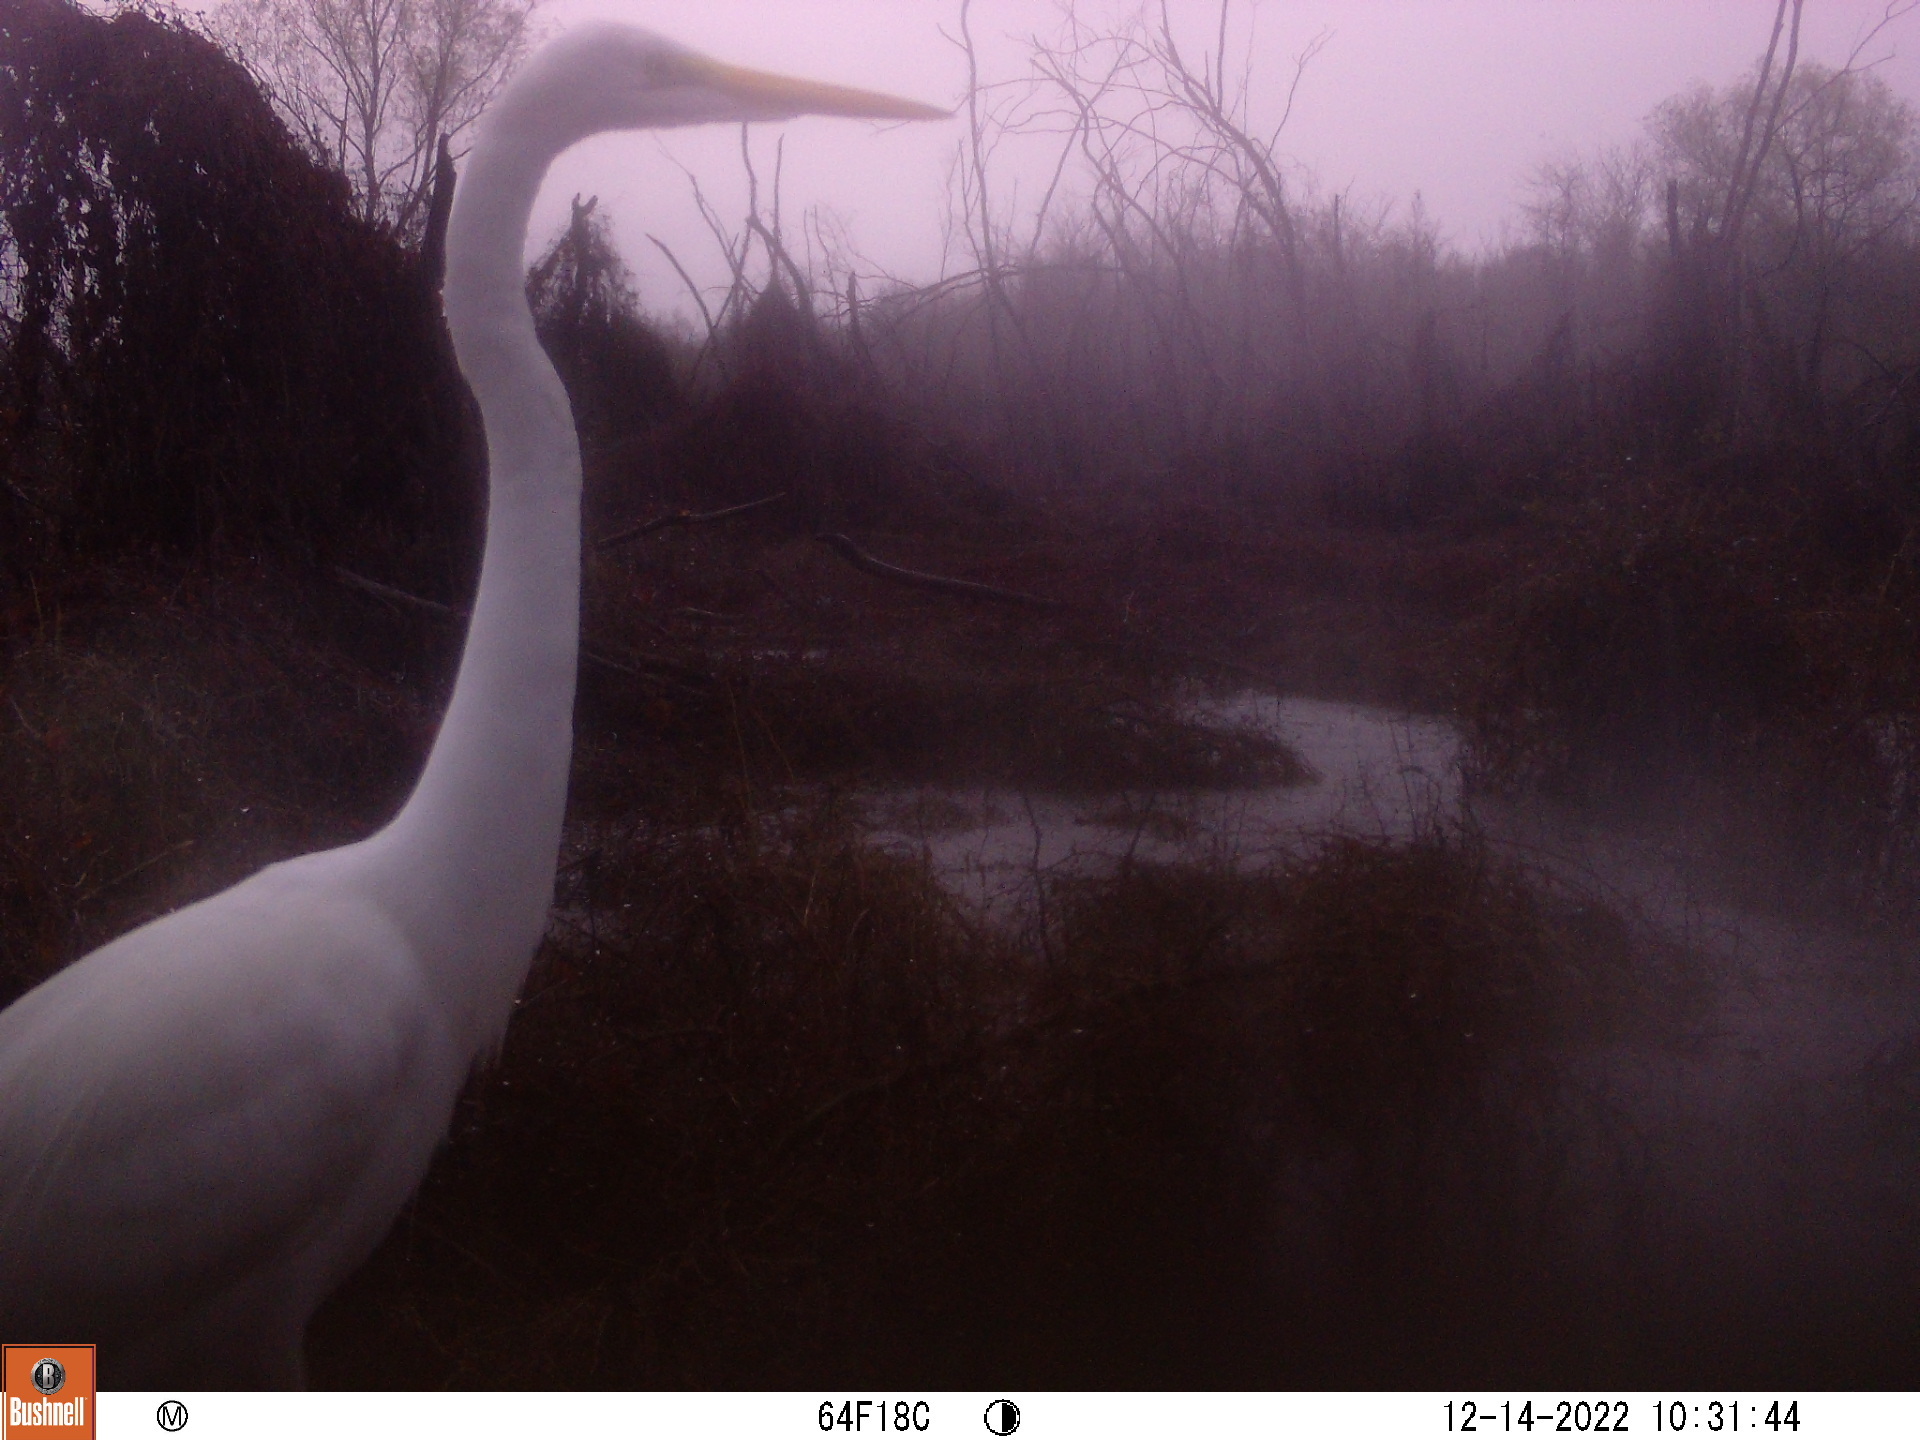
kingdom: Animalia
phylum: Chordata
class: Aves
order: Pelecaniformes
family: Ardeidae
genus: Ardea
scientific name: Ardea alba
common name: Great egret
